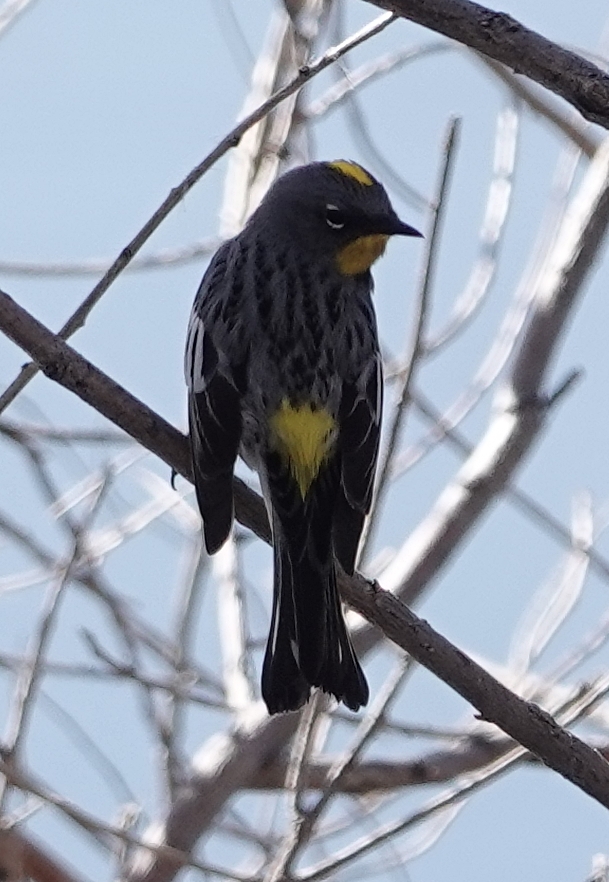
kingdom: Animalia
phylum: Chordata
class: Aves
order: Passeriformes
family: Parulidae
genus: Setophaga
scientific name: Setophaga coronata
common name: Myrtle warbler
